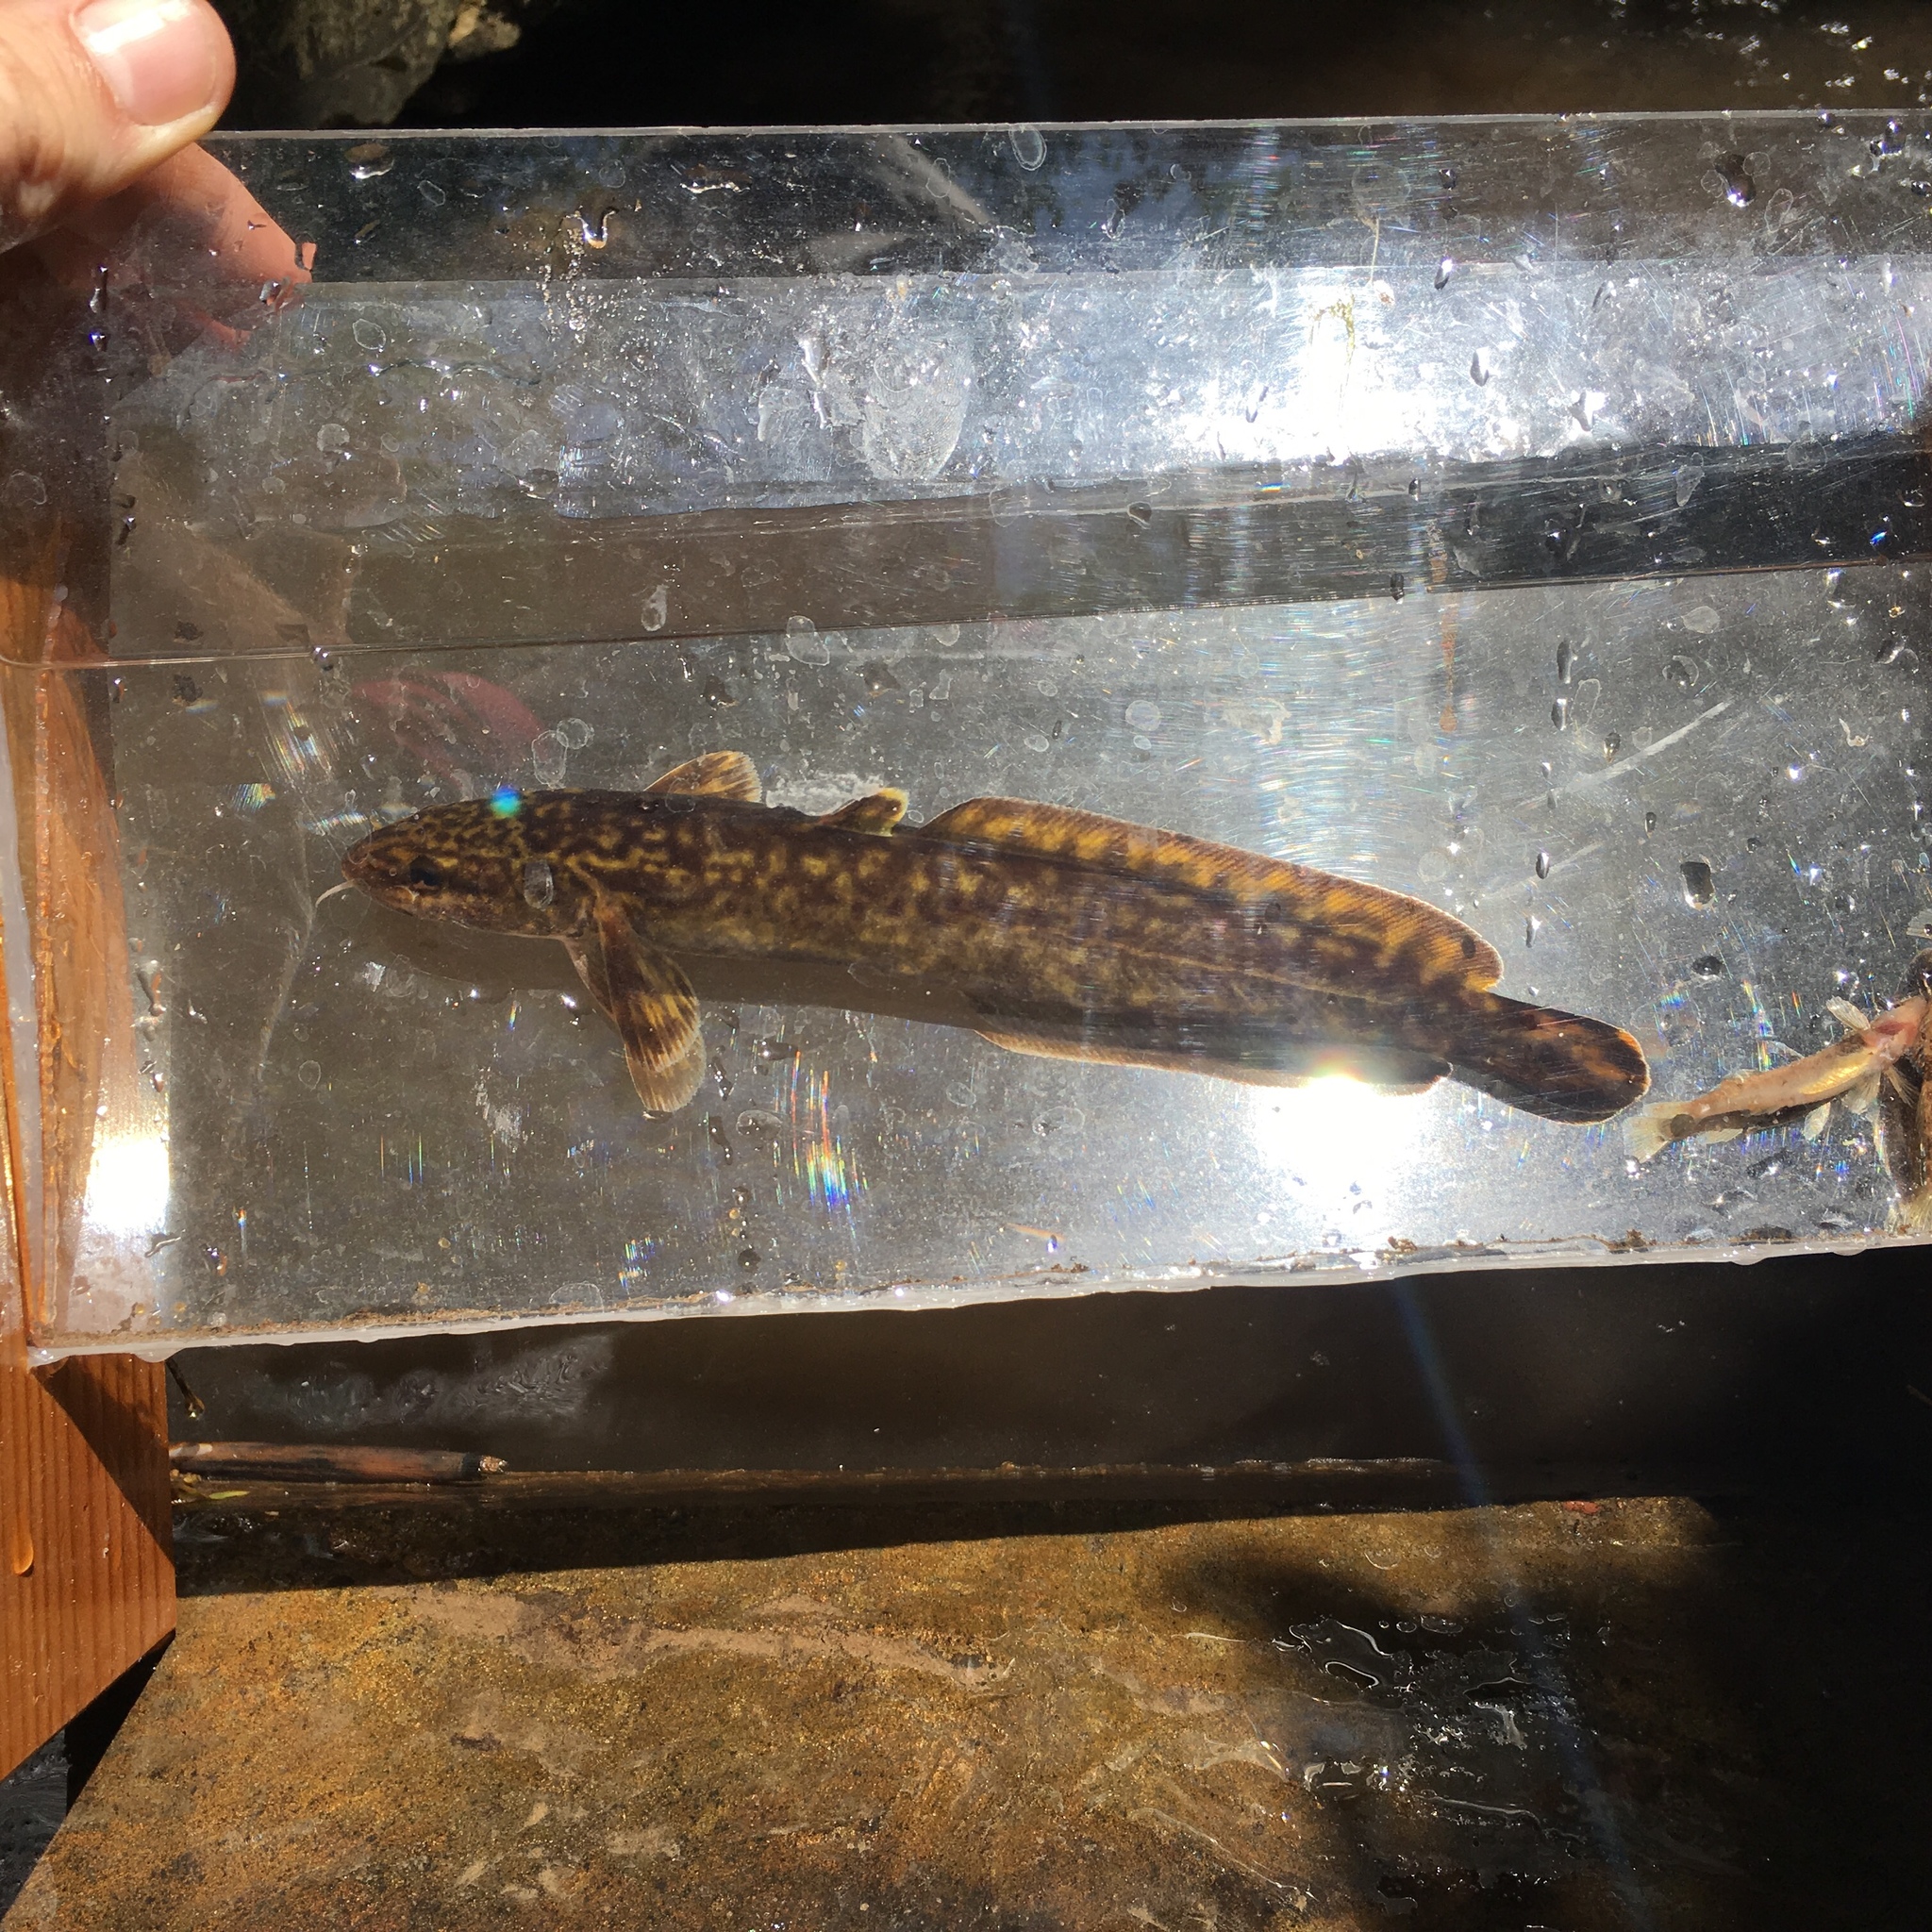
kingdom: Animalia
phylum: Chordata
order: Gadiformes
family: Lotidae
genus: Lota
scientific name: Lota lota
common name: Burbot
